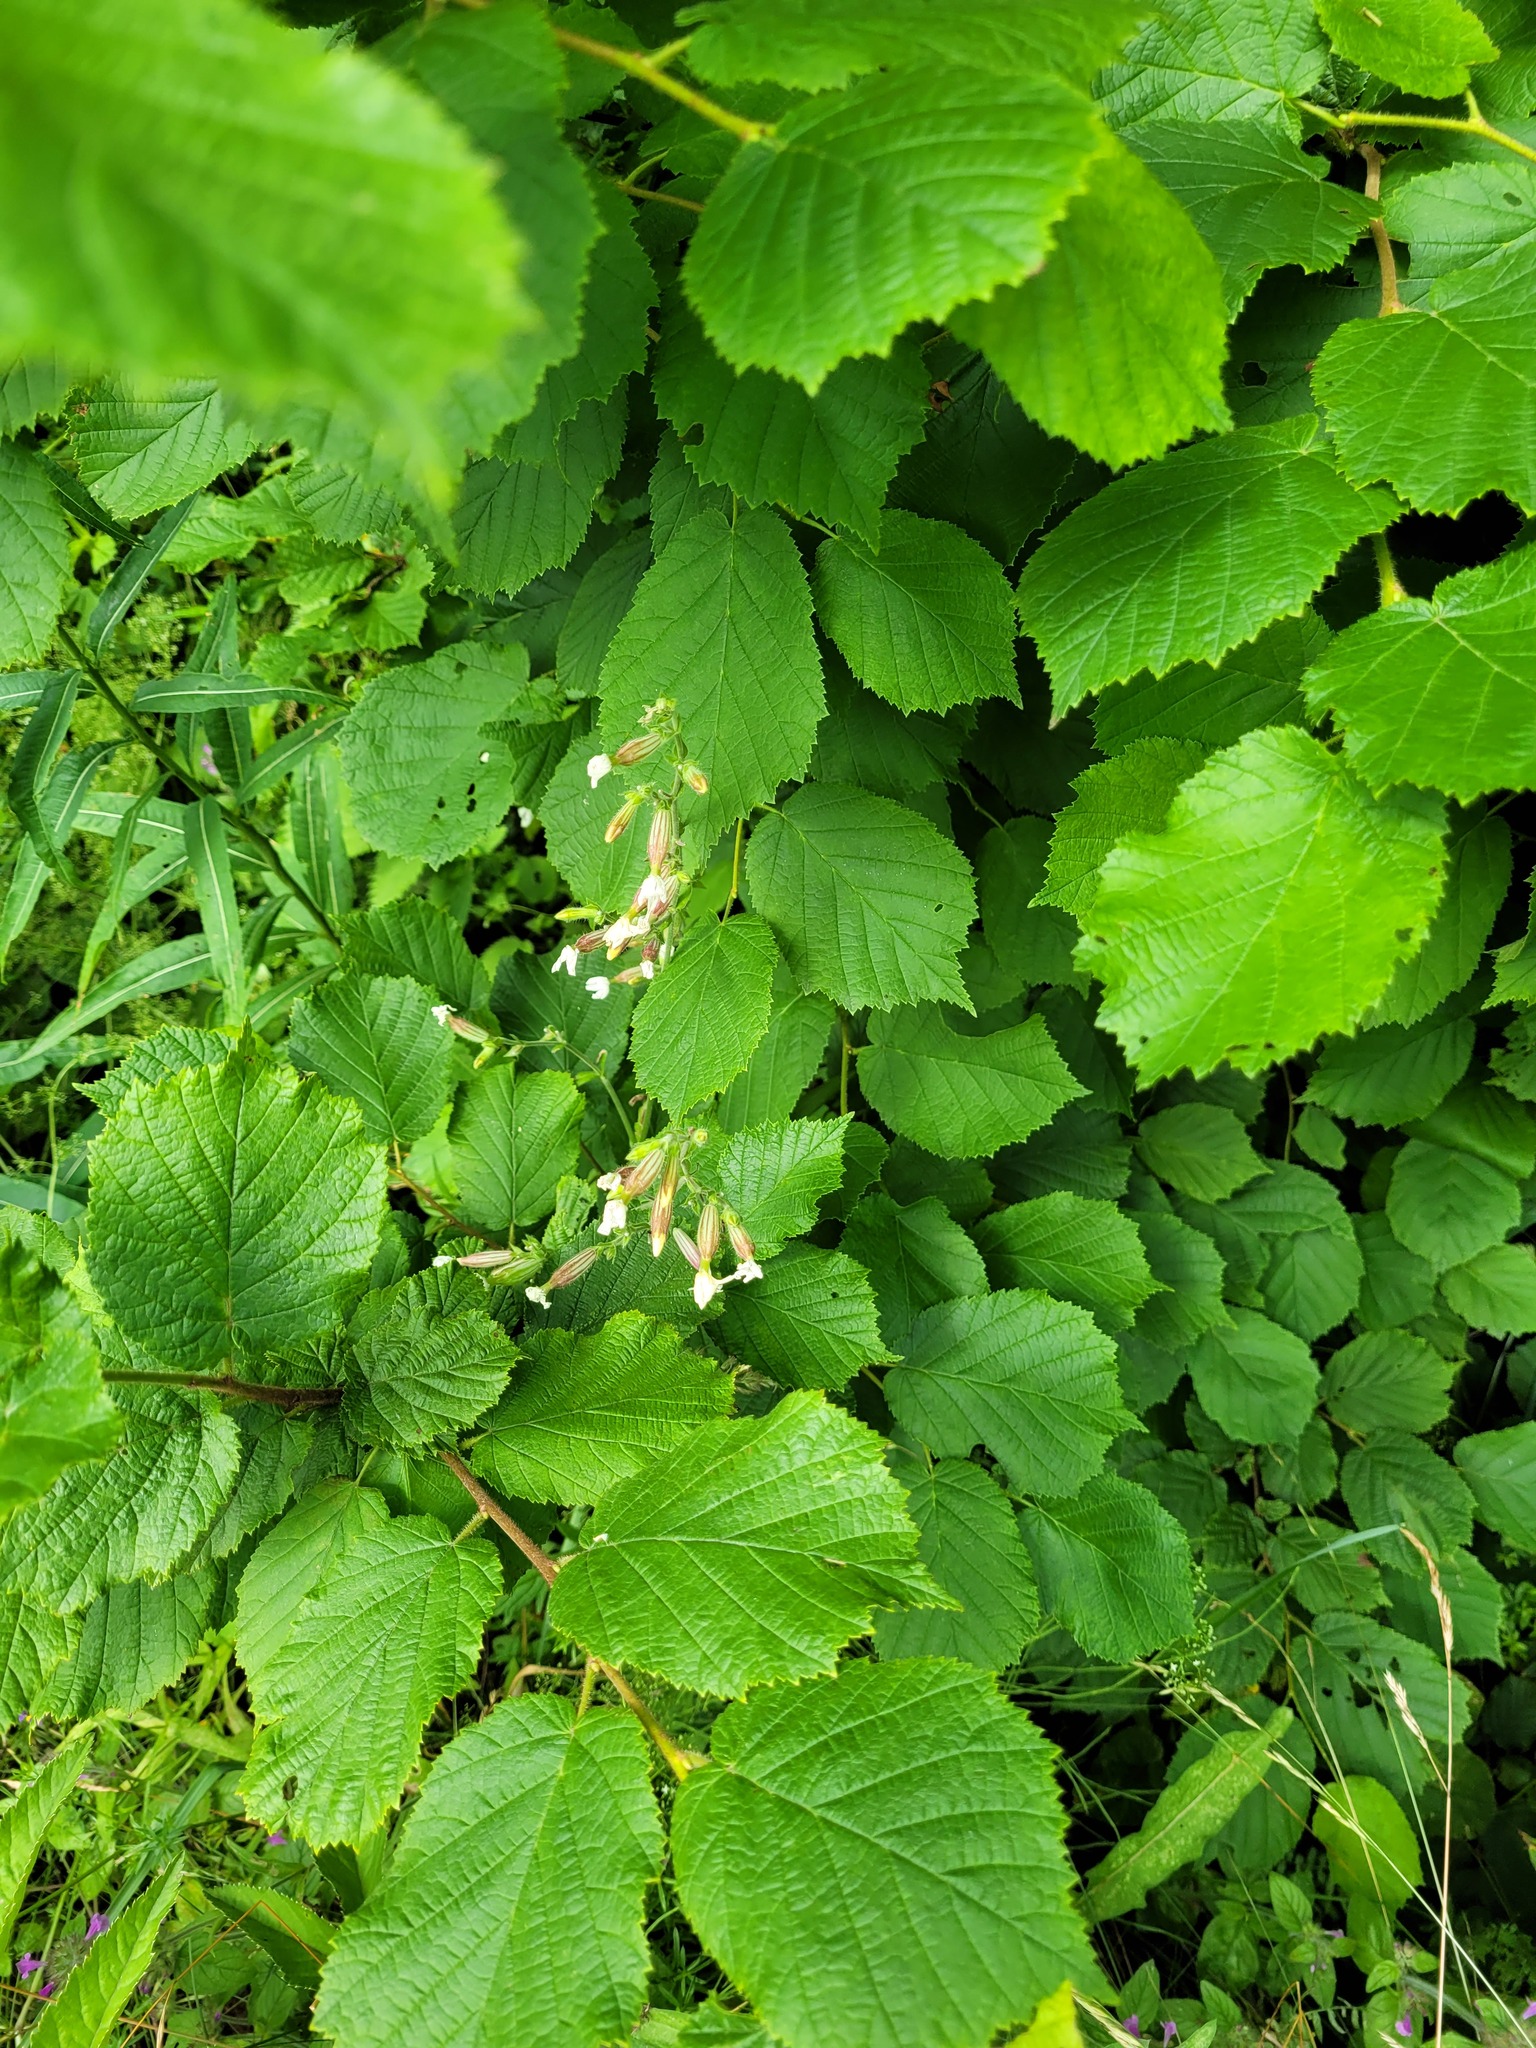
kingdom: Plantae
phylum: Tracheophyta
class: Magnoliopsida
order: Caryophyllales
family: Caryophyllaceae
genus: Silene
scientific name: Silene latifolia
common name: White campion
